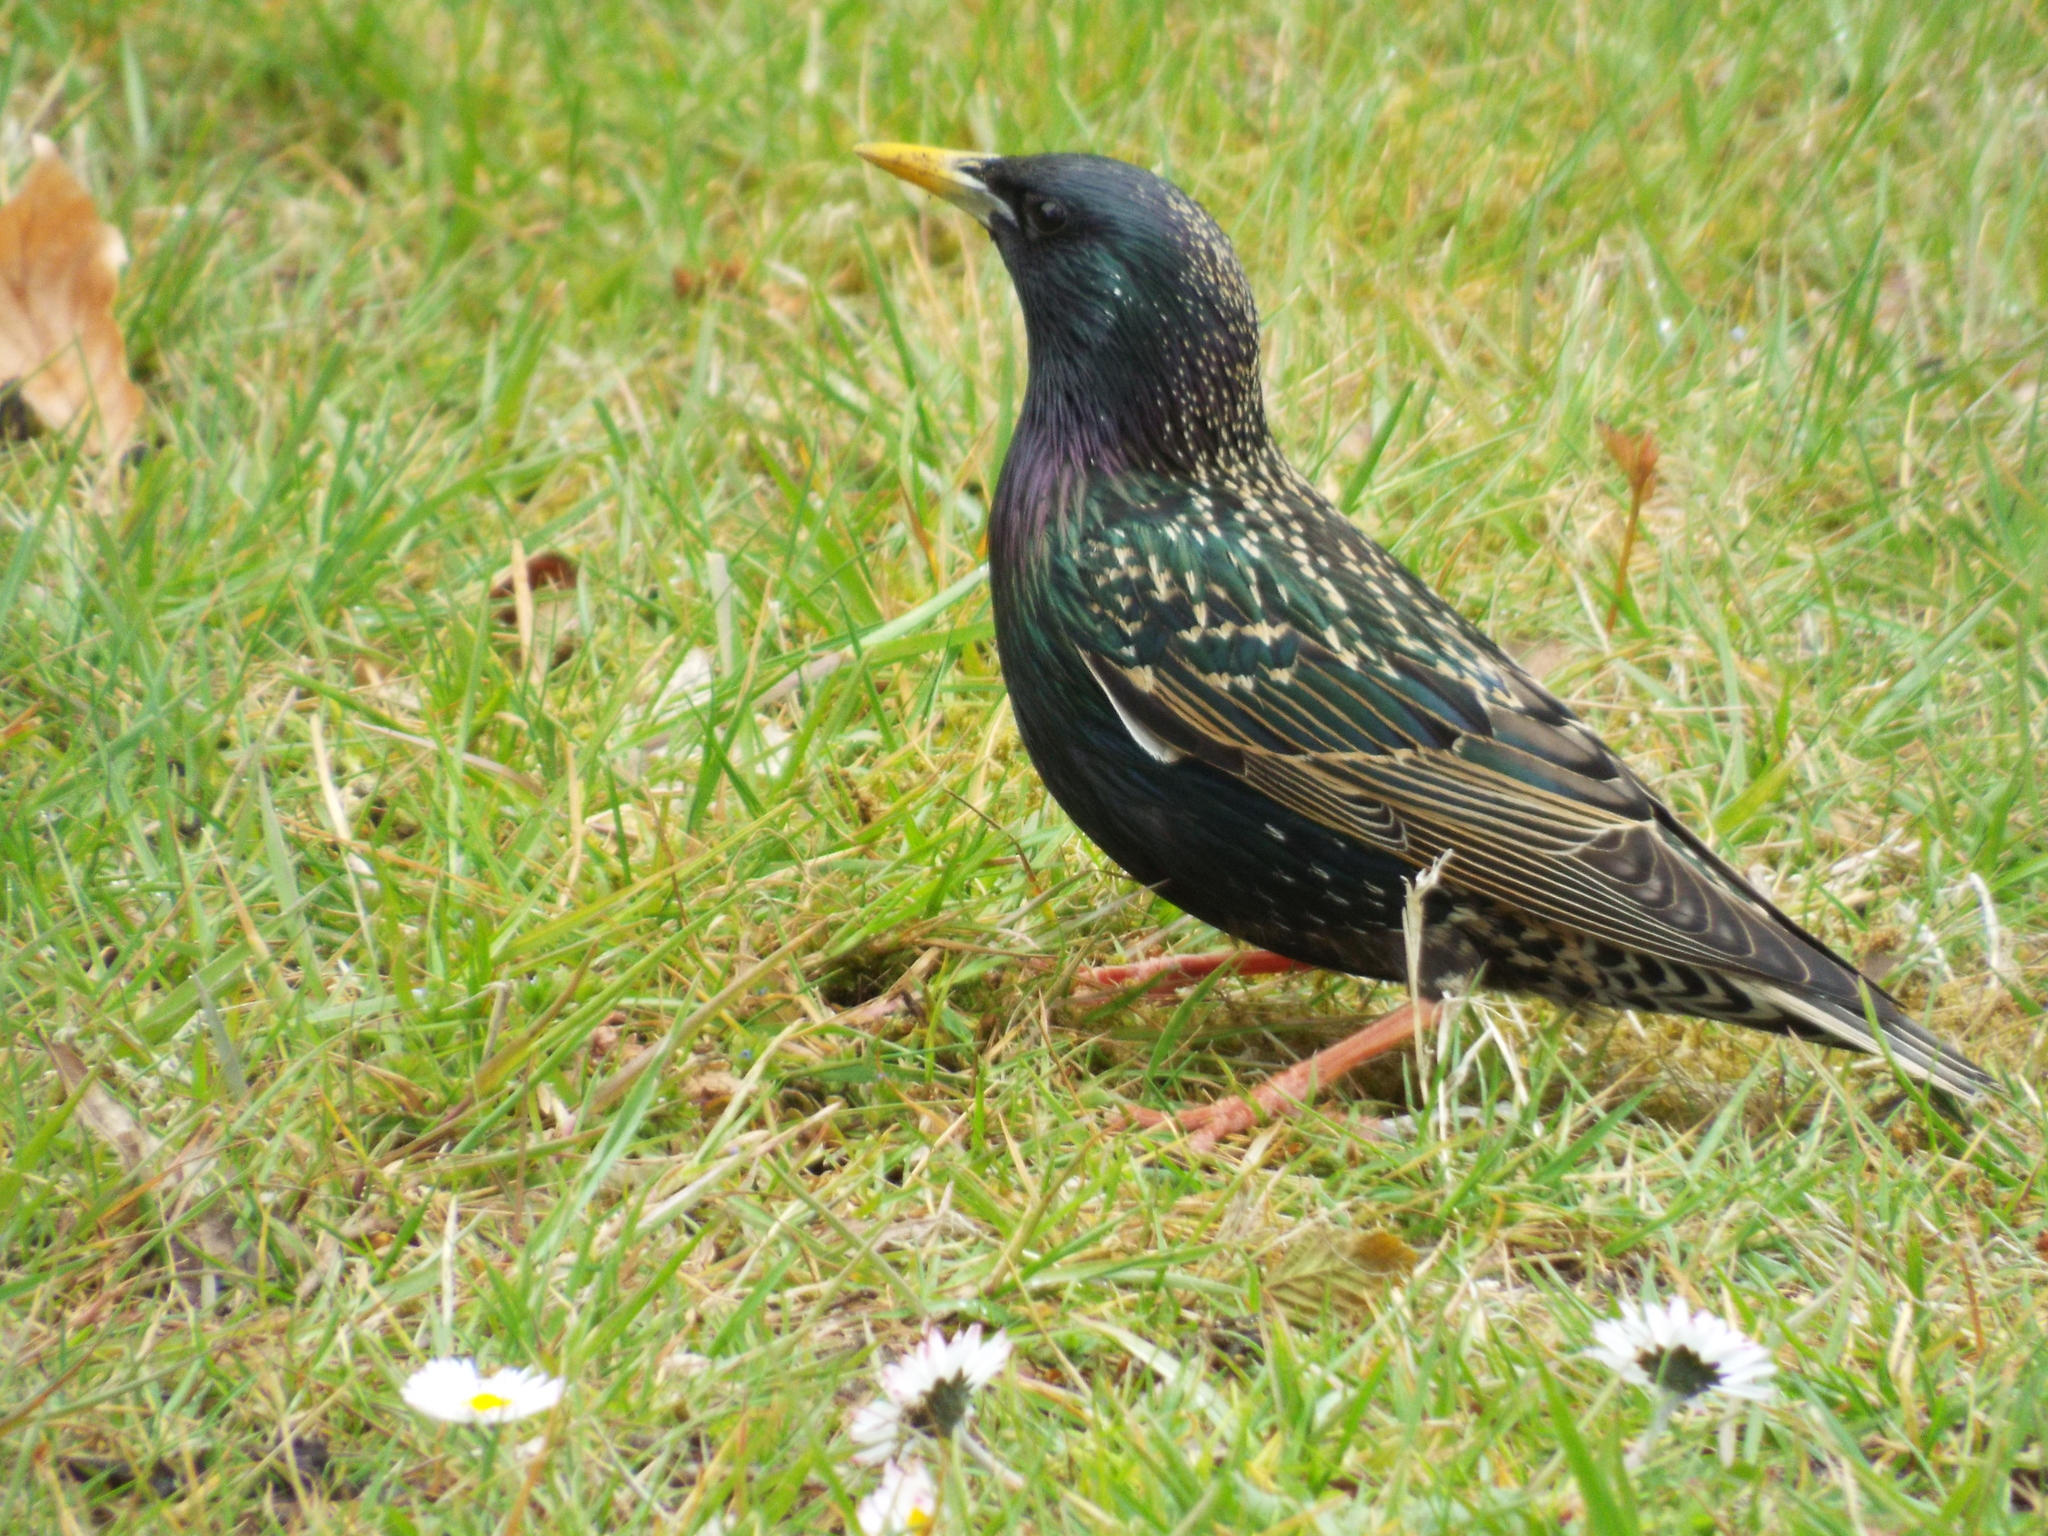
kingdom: Animalia
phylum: Chordata
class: Aves
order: Passeriformes
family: Sturnidae
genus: Sturnus
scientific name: Sturnus vulgaris
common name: Common starling
